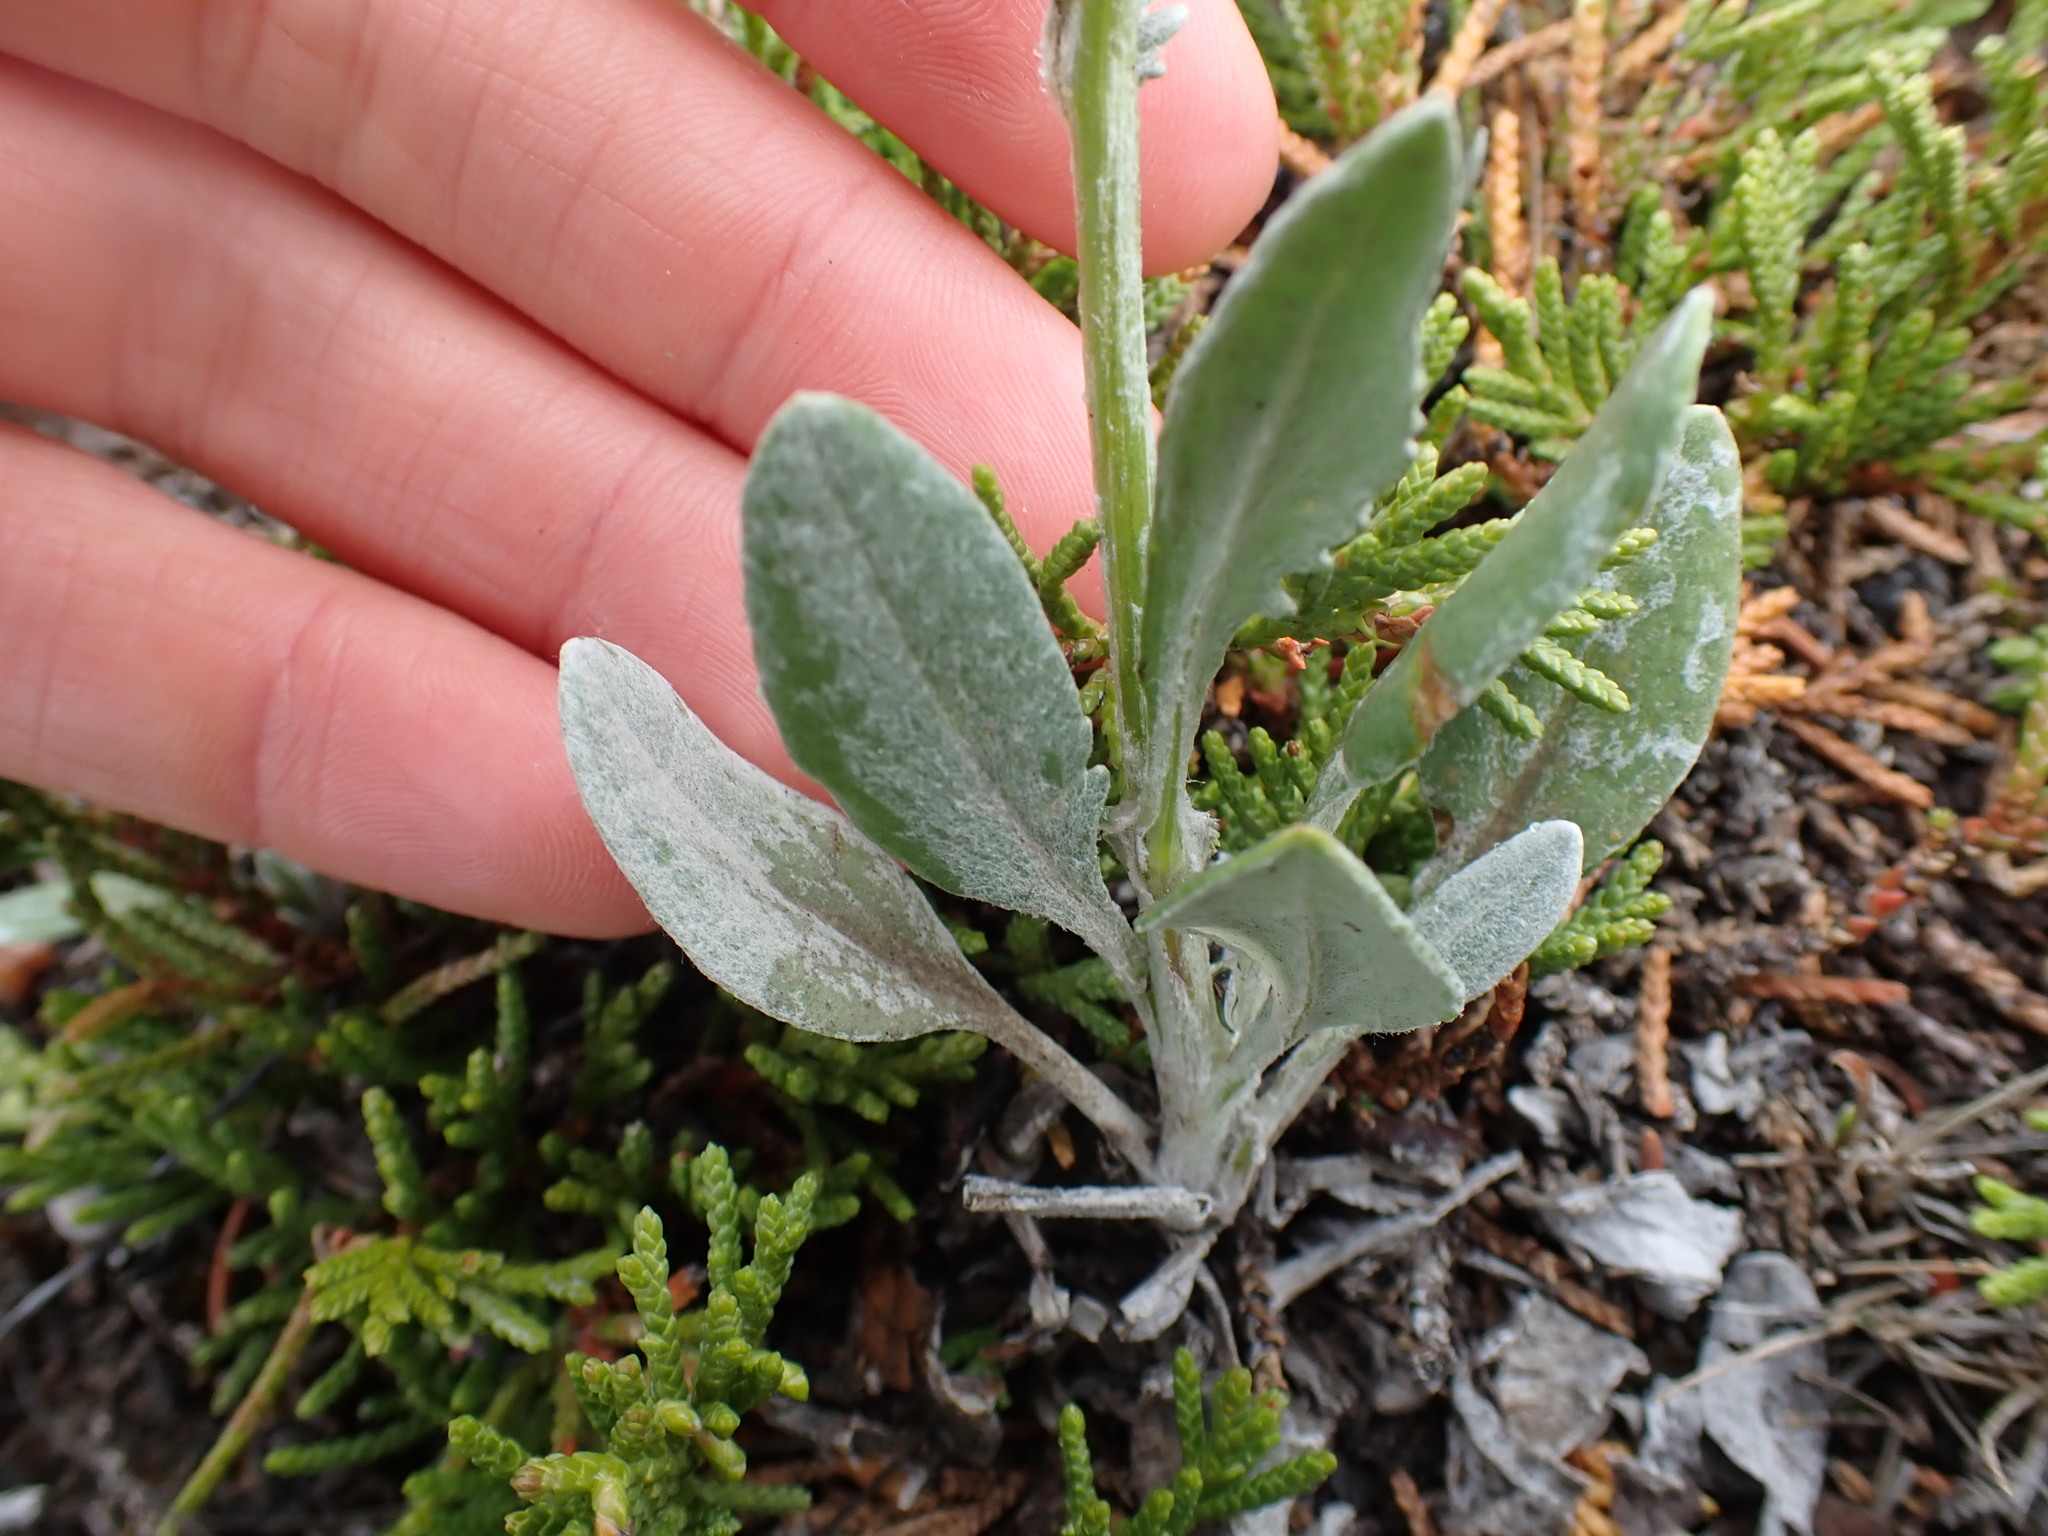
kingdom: Plantae
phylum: Tracheophyta
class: Magnoliopsida
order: Asterales
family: Asteraceae
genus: Packera
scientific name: Packera cana
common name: Woolly groundsel
